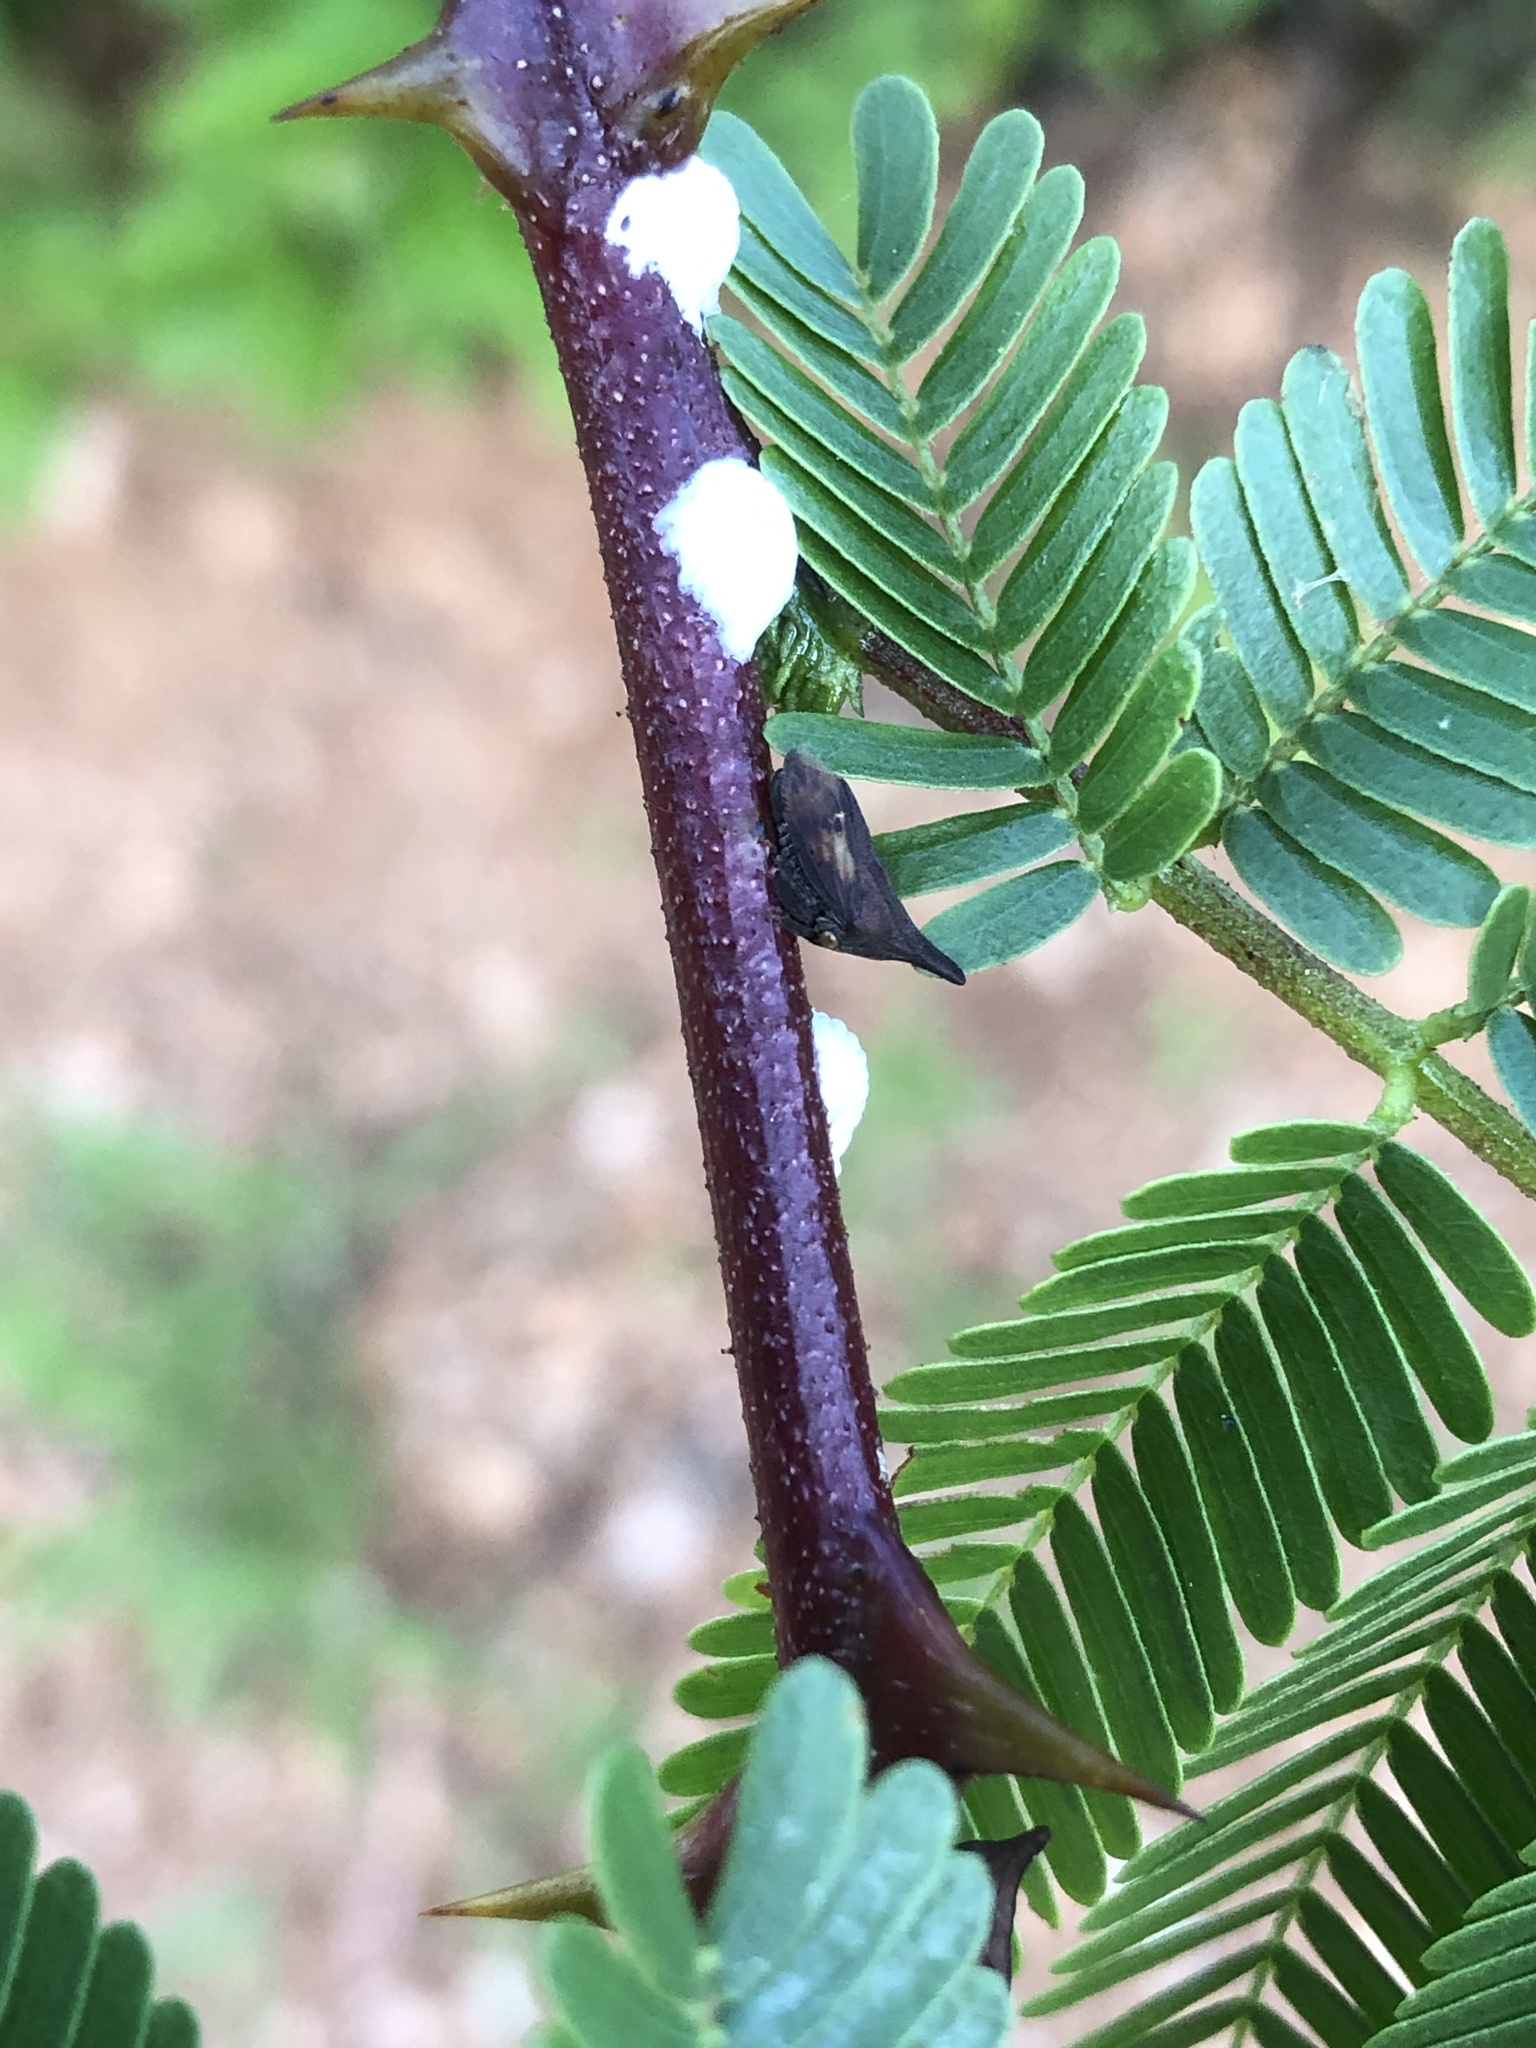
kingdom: Animalia
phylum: Arthropoda
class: Insecta
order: Hemiptera
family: Membracidae
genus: Enchenopa
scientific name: Enchenopa
